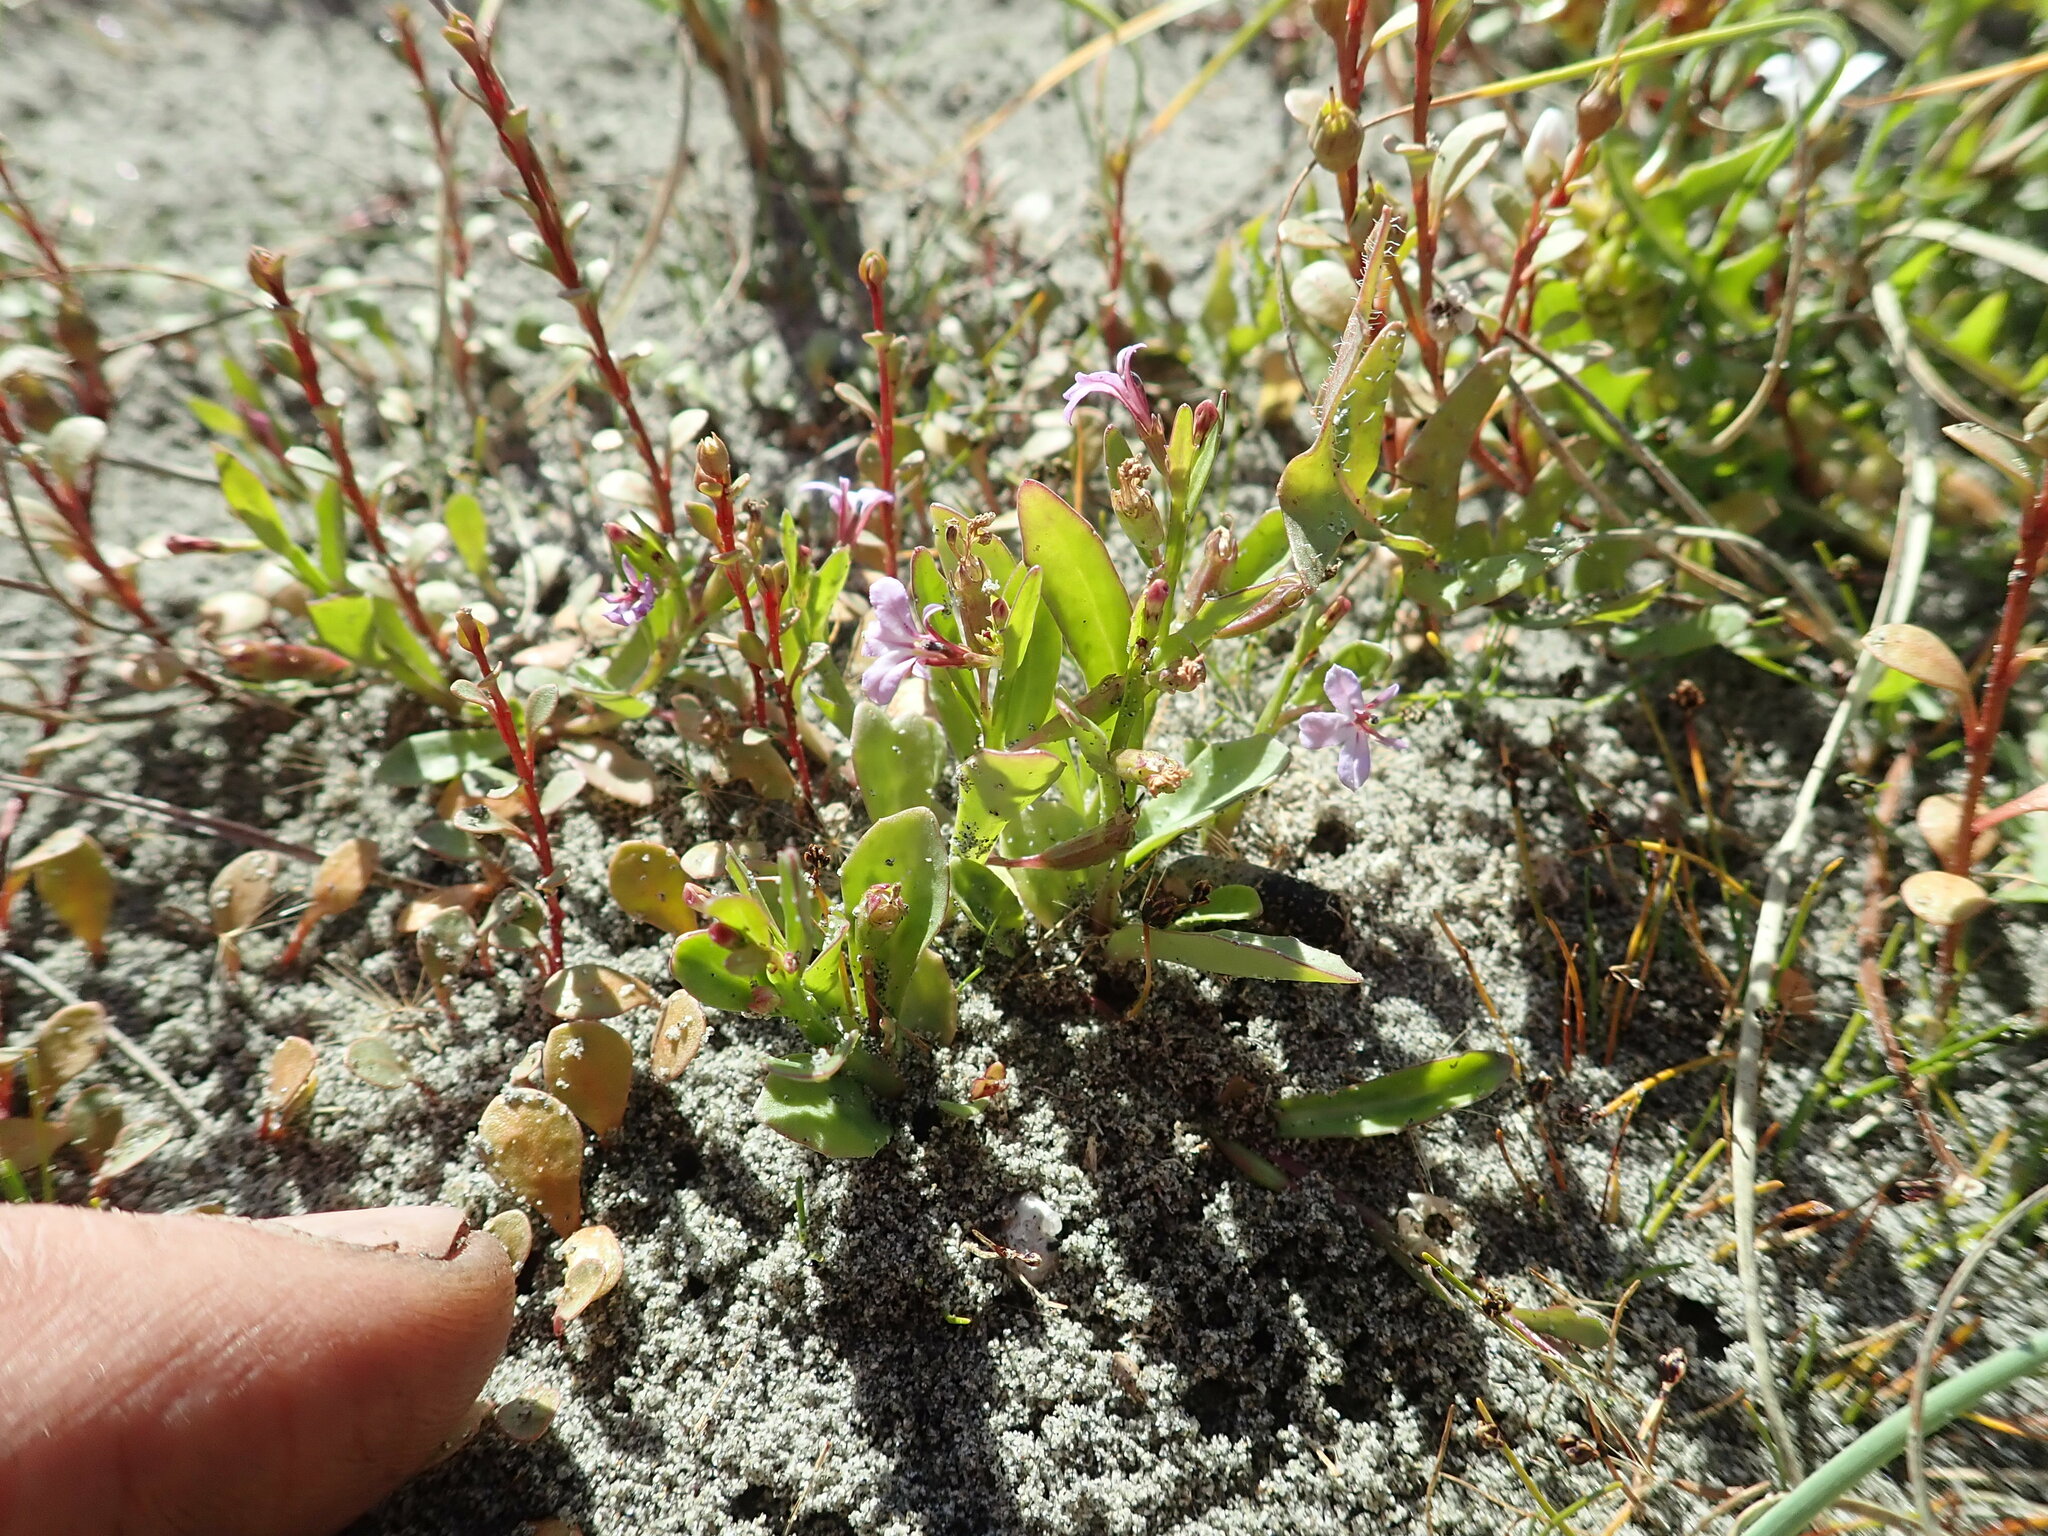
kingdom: Plantae
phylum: Tracheophyta
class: Magnoliopsida
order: Asterales
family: Campanulaceae
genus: Lobelia
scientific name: Lobelia anceps
